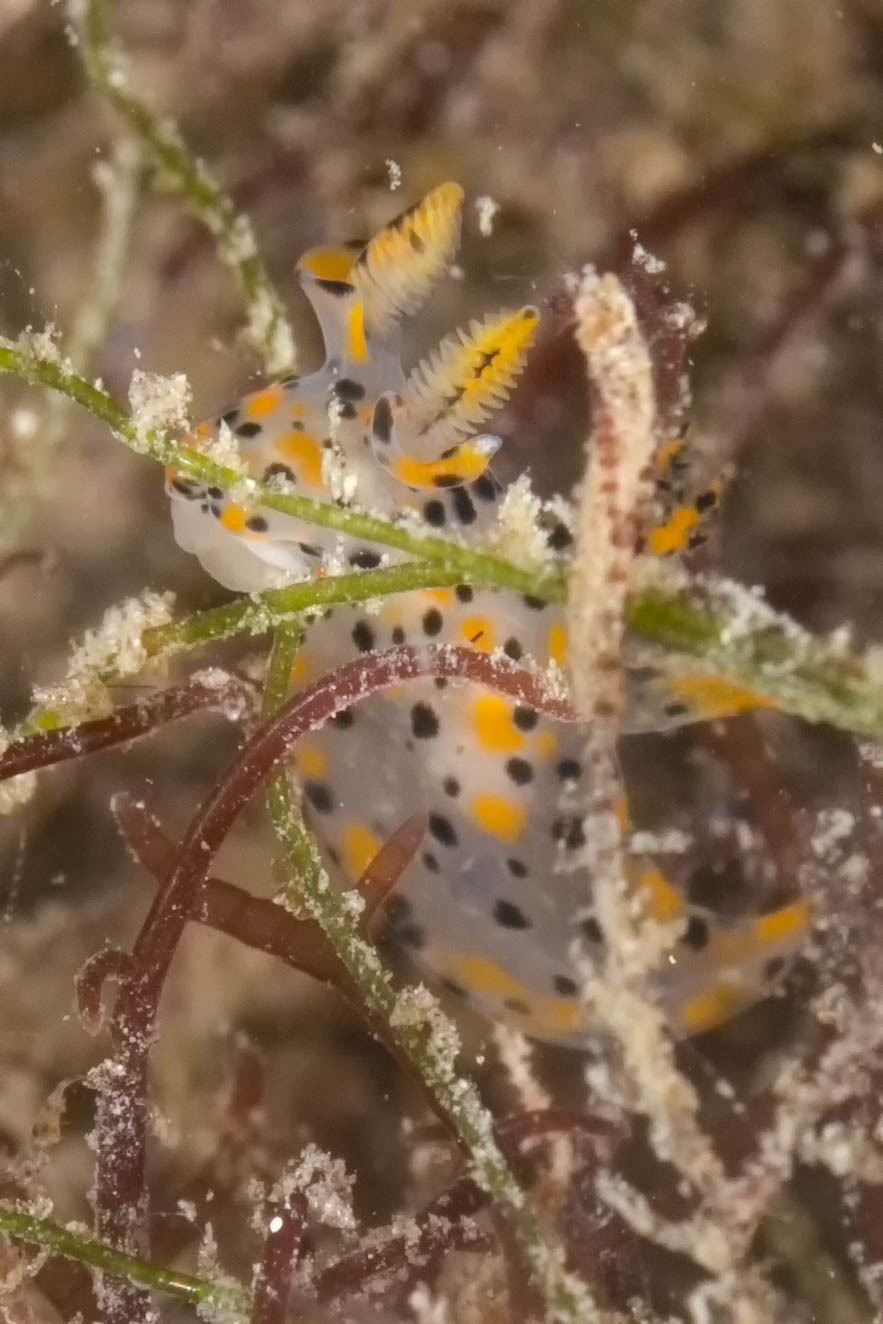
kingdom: Animalia
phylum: Mollusca
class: Gastropoda
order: Nudibranchia
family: Polyceridae
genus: Thecacera
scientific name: Thecacera pennigera
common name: Thecacera
